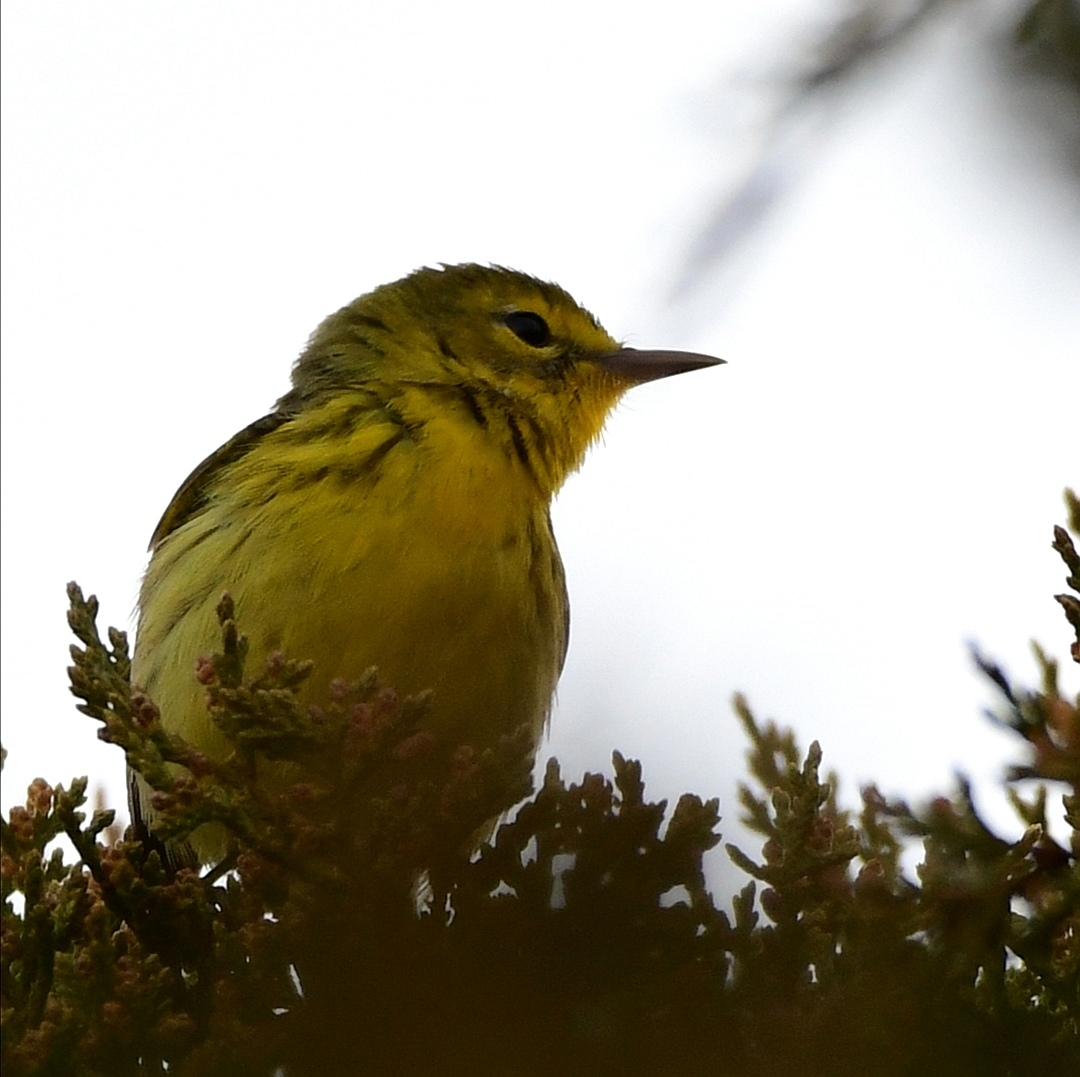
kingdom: Animalia
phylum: Chordata
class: Aves
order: Passeriformes
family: Parulidae
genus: Setophaga
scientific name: Setophaga discolor
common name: Prairie warbler
